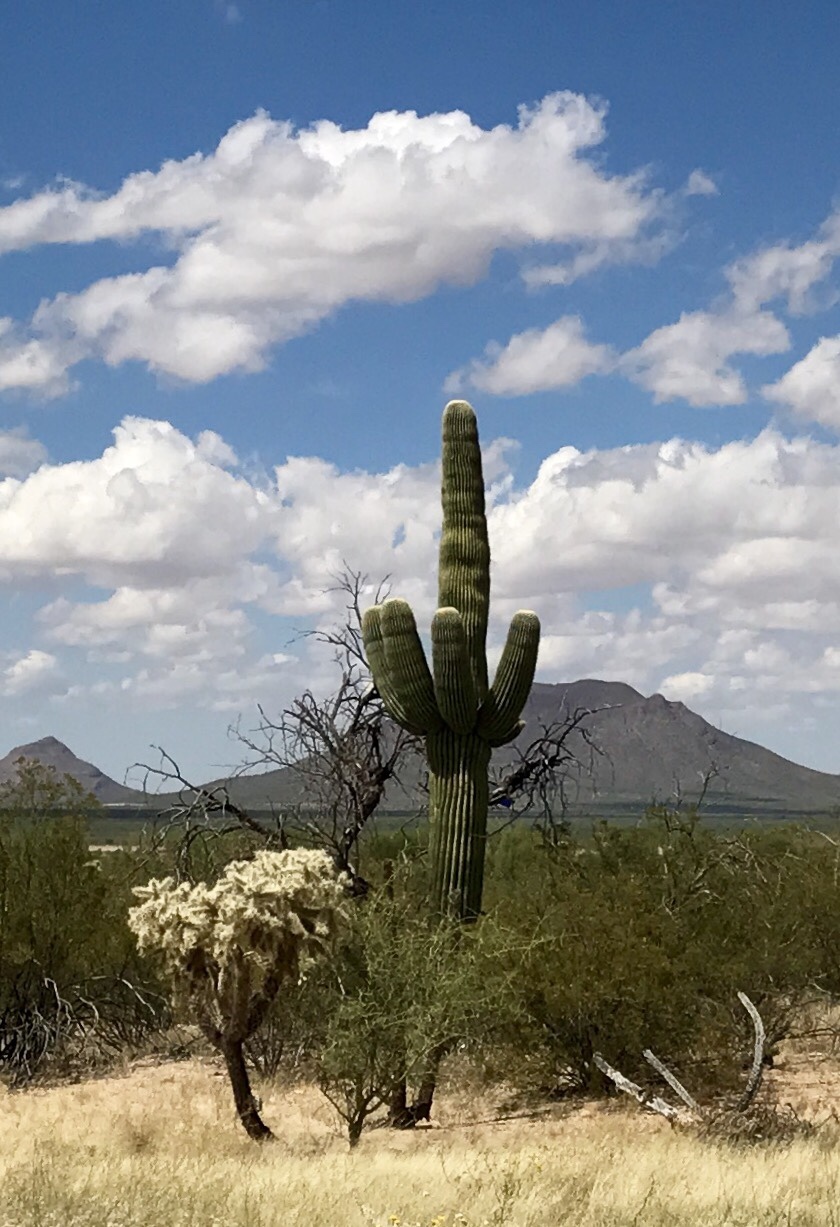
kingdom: Plantae
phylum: Tracheophyta
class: Magnoliopsida
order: Caryophyllales
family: Cactaceae
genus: Carnegiea
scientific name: Carnegiea gigantea
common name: Saguaro
